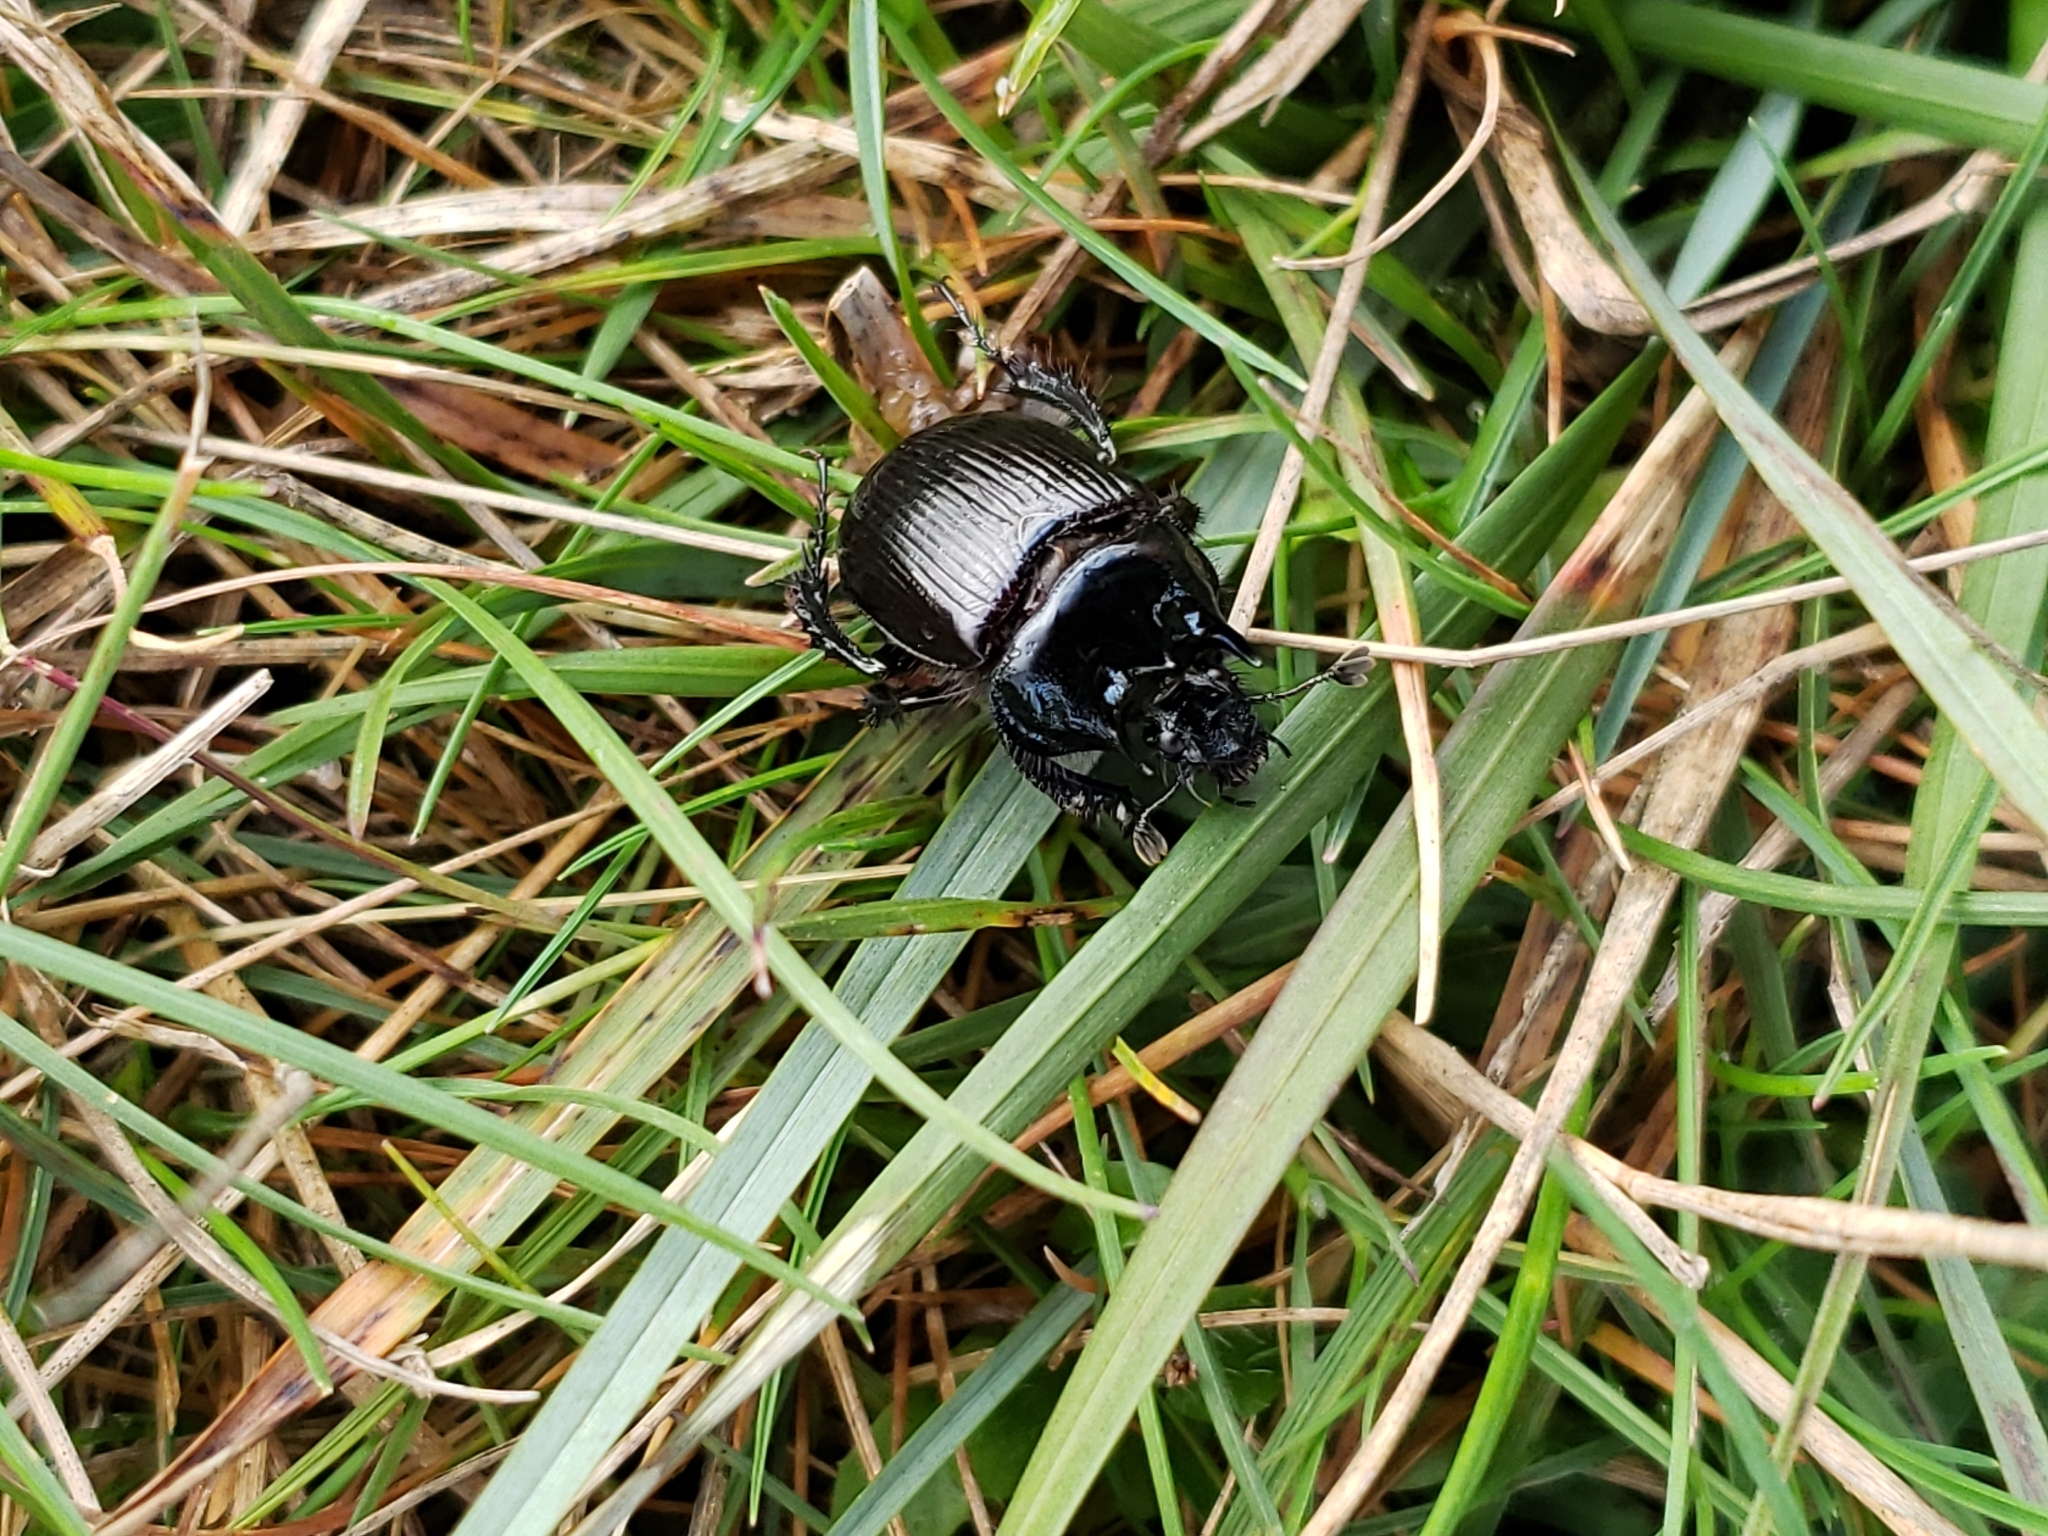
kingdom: Animalia
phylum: Arthropoda
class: Insecta
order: Coleoptera
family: Geotrupidae
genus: Typhaeus
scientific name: Typhaeus typhoeus
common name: Minotaur beetle
